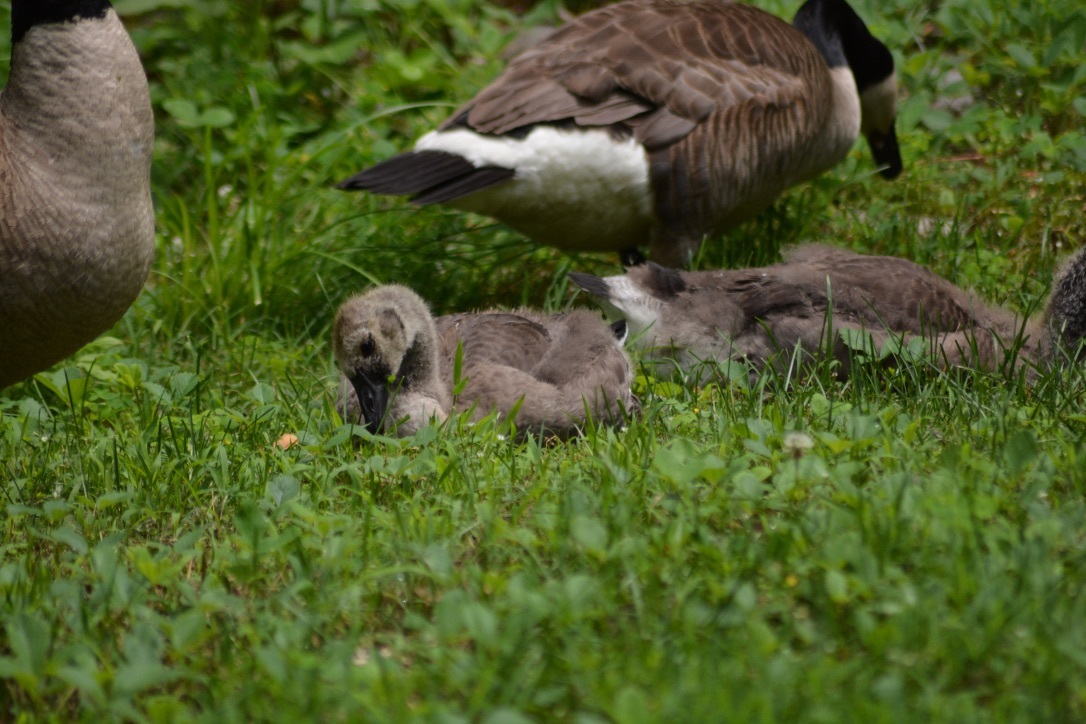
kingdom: Animalia
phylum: Chordata
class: Aves
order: Anseriformes
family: Anatidae
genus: Branta
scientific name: Branta canadensis
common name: Canada goose
